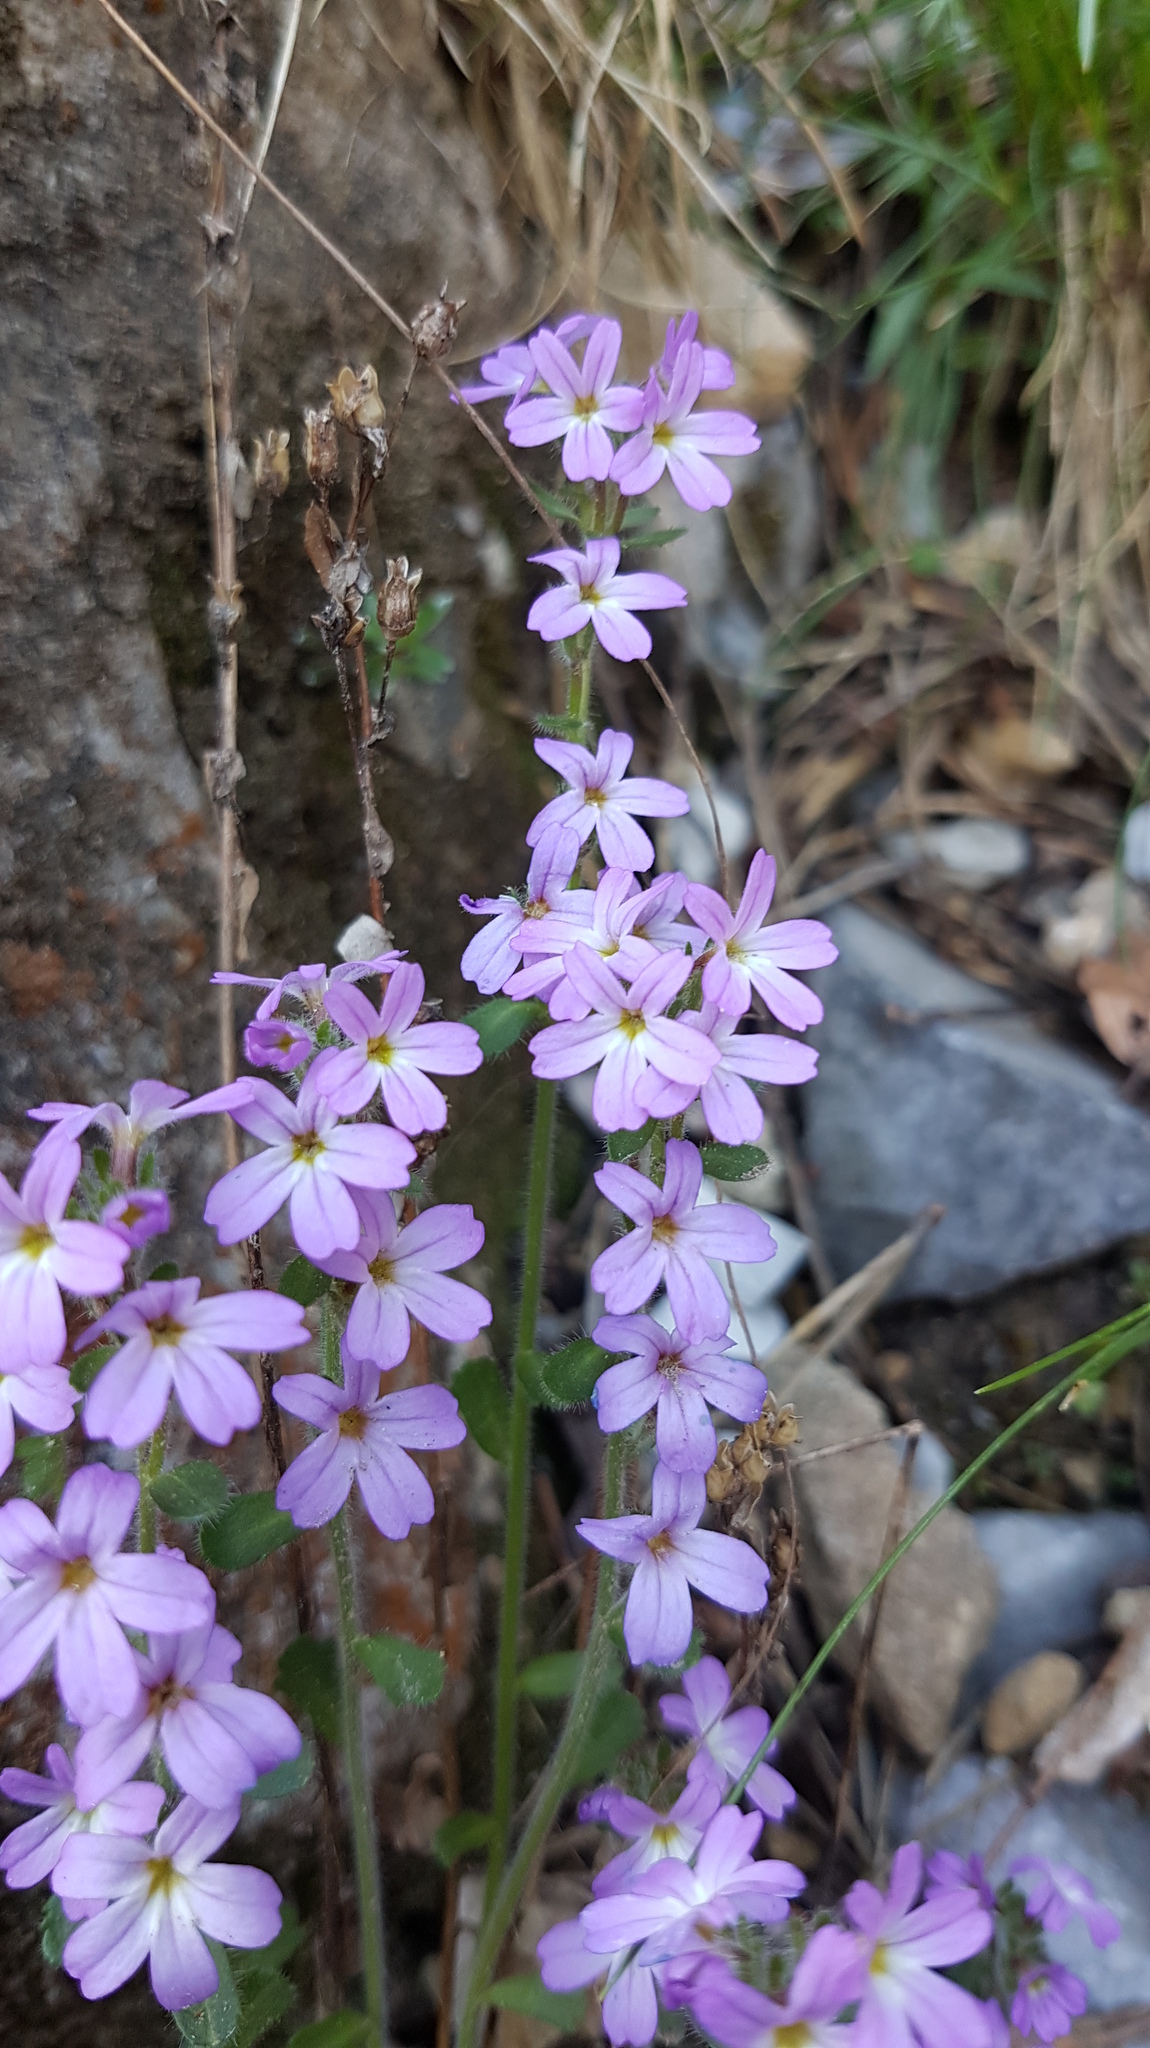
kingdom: Plantae
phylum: Tracheophyta
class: Magnoliopsida
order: Lamiales
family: Plantaginaceae
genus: Erinus
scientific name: Erinus alpinus
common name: Fairy foxglove
